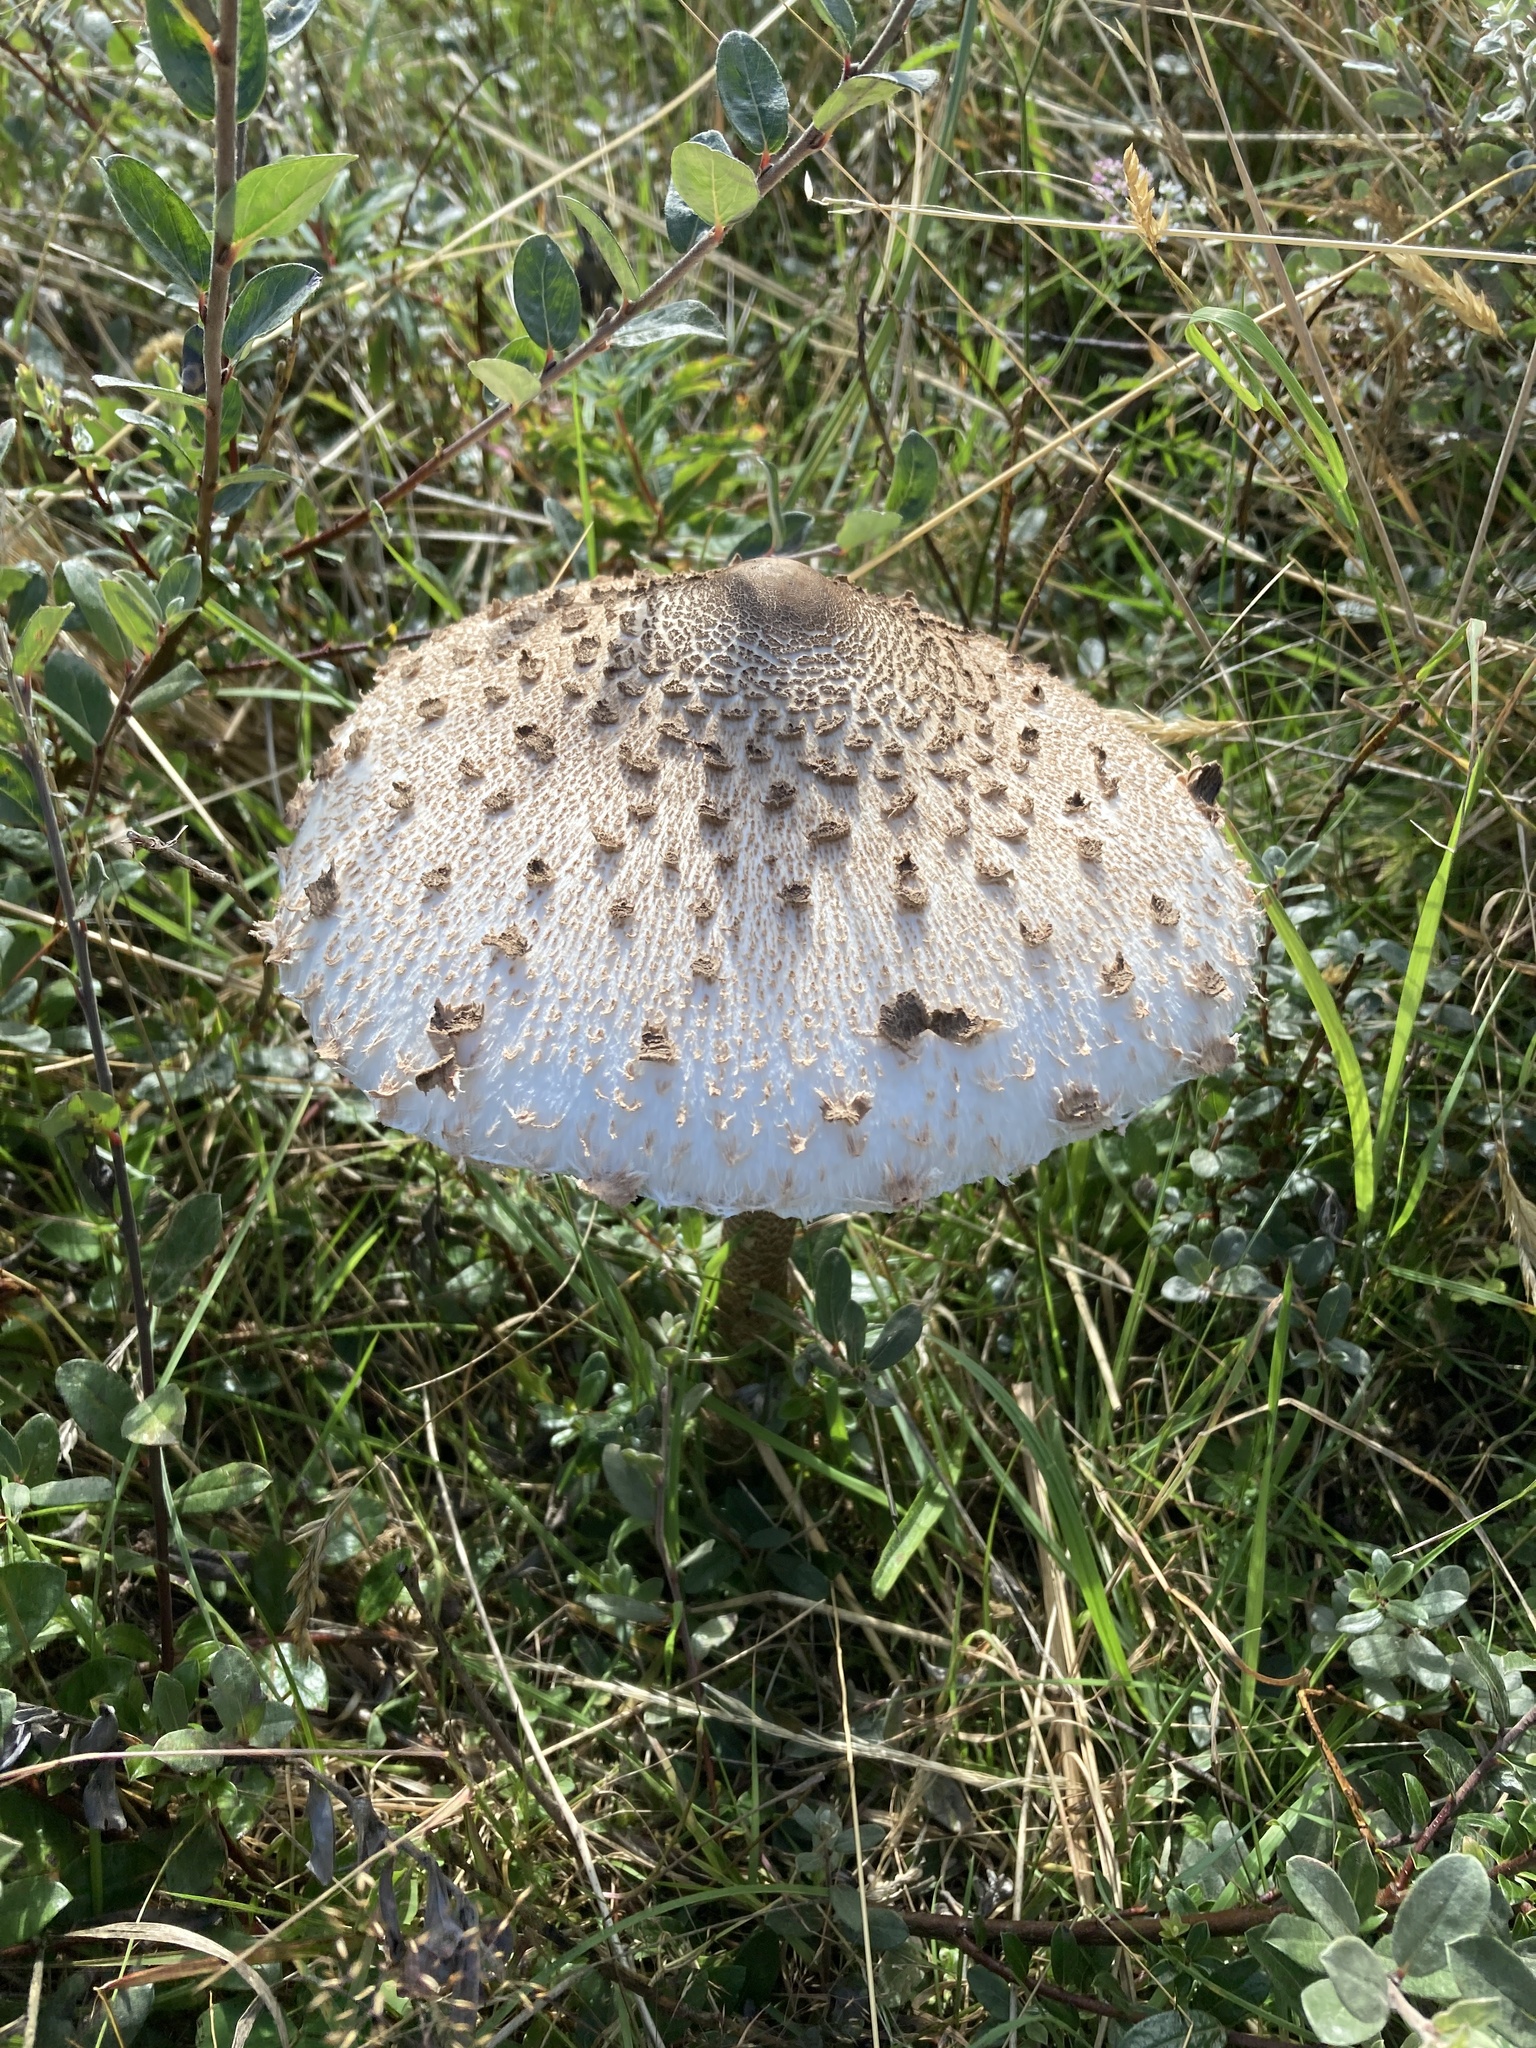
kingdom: Fungi
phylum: Basidiomycota
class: Agaricomycetes
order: Agaricales
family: Agaricaceae
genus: Macrolepiota
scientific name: Macrolepiota procera
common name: Parasol
